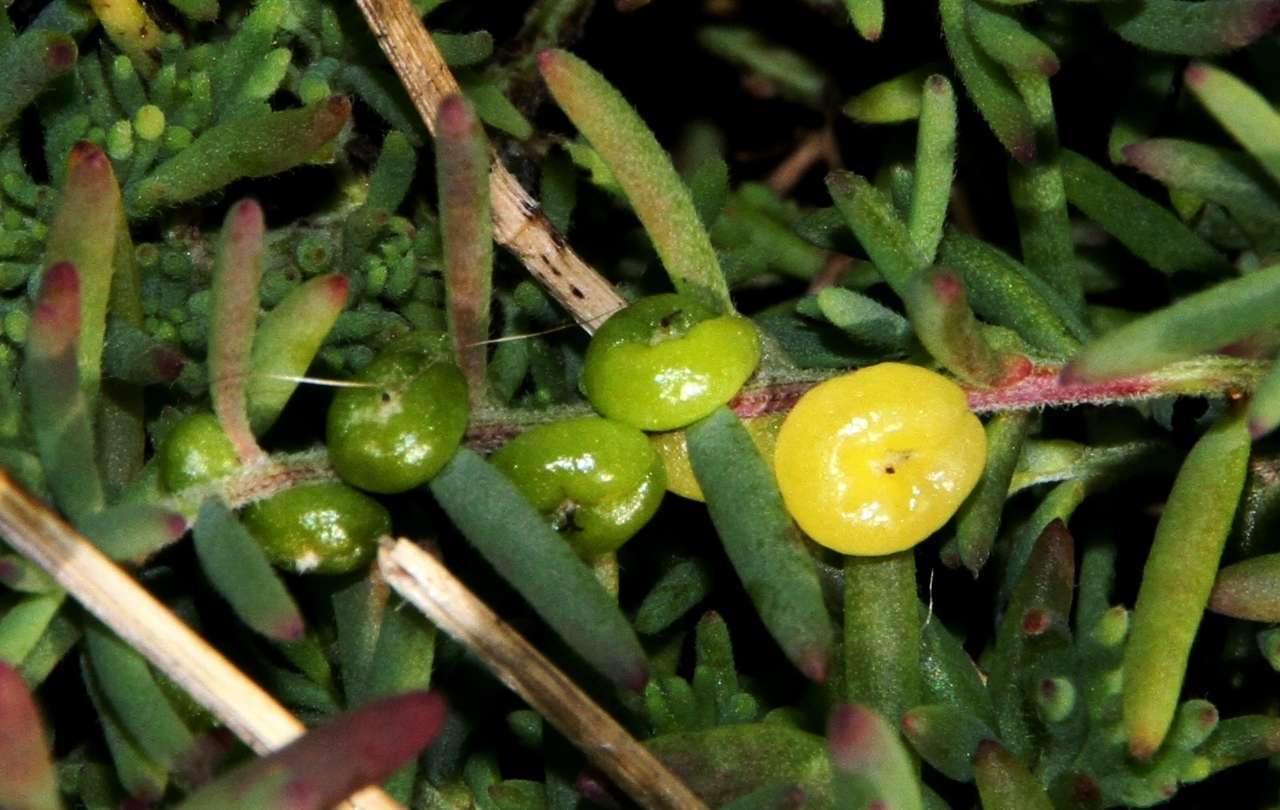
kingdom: Plantae
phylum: Tracheophyta
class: Magnoliopsida
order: Caryophyllales
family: Amaranthaceae
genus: Enchylaena
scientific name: Enchylaena tomentosa
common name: Ruby saltbush
